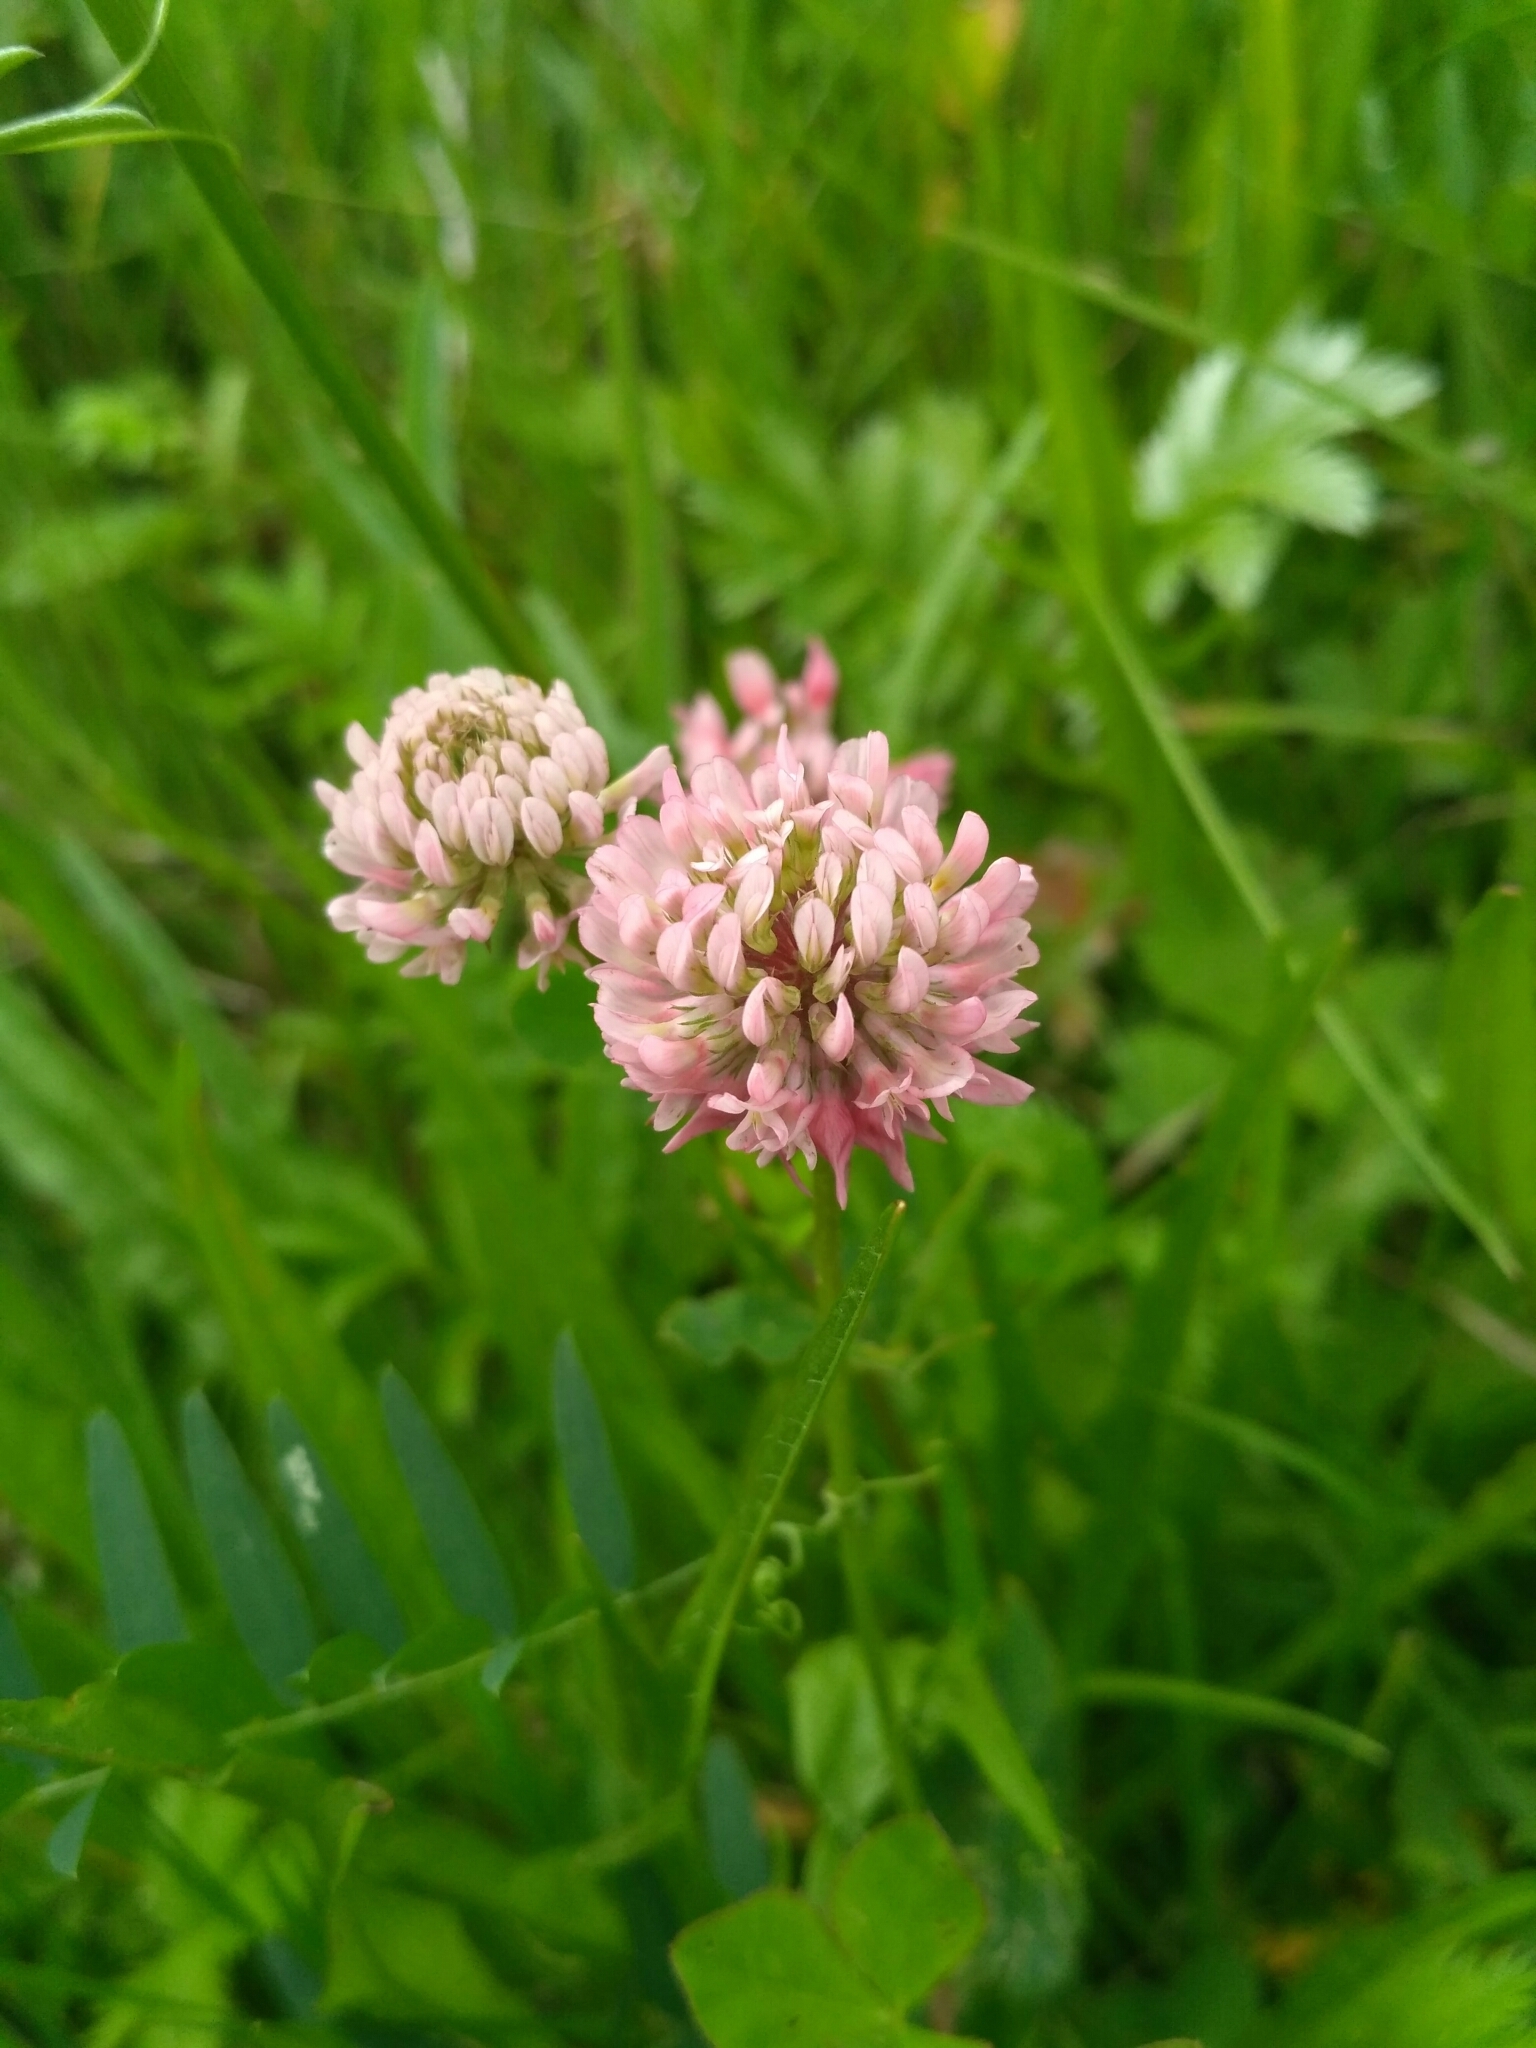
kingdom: Plantae
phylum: Tracheophyta
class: Magnoliopsida
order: Fabales
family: Fabaceae
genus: Trifolium
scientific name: Trifolium hybridum
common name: Alsike clover
